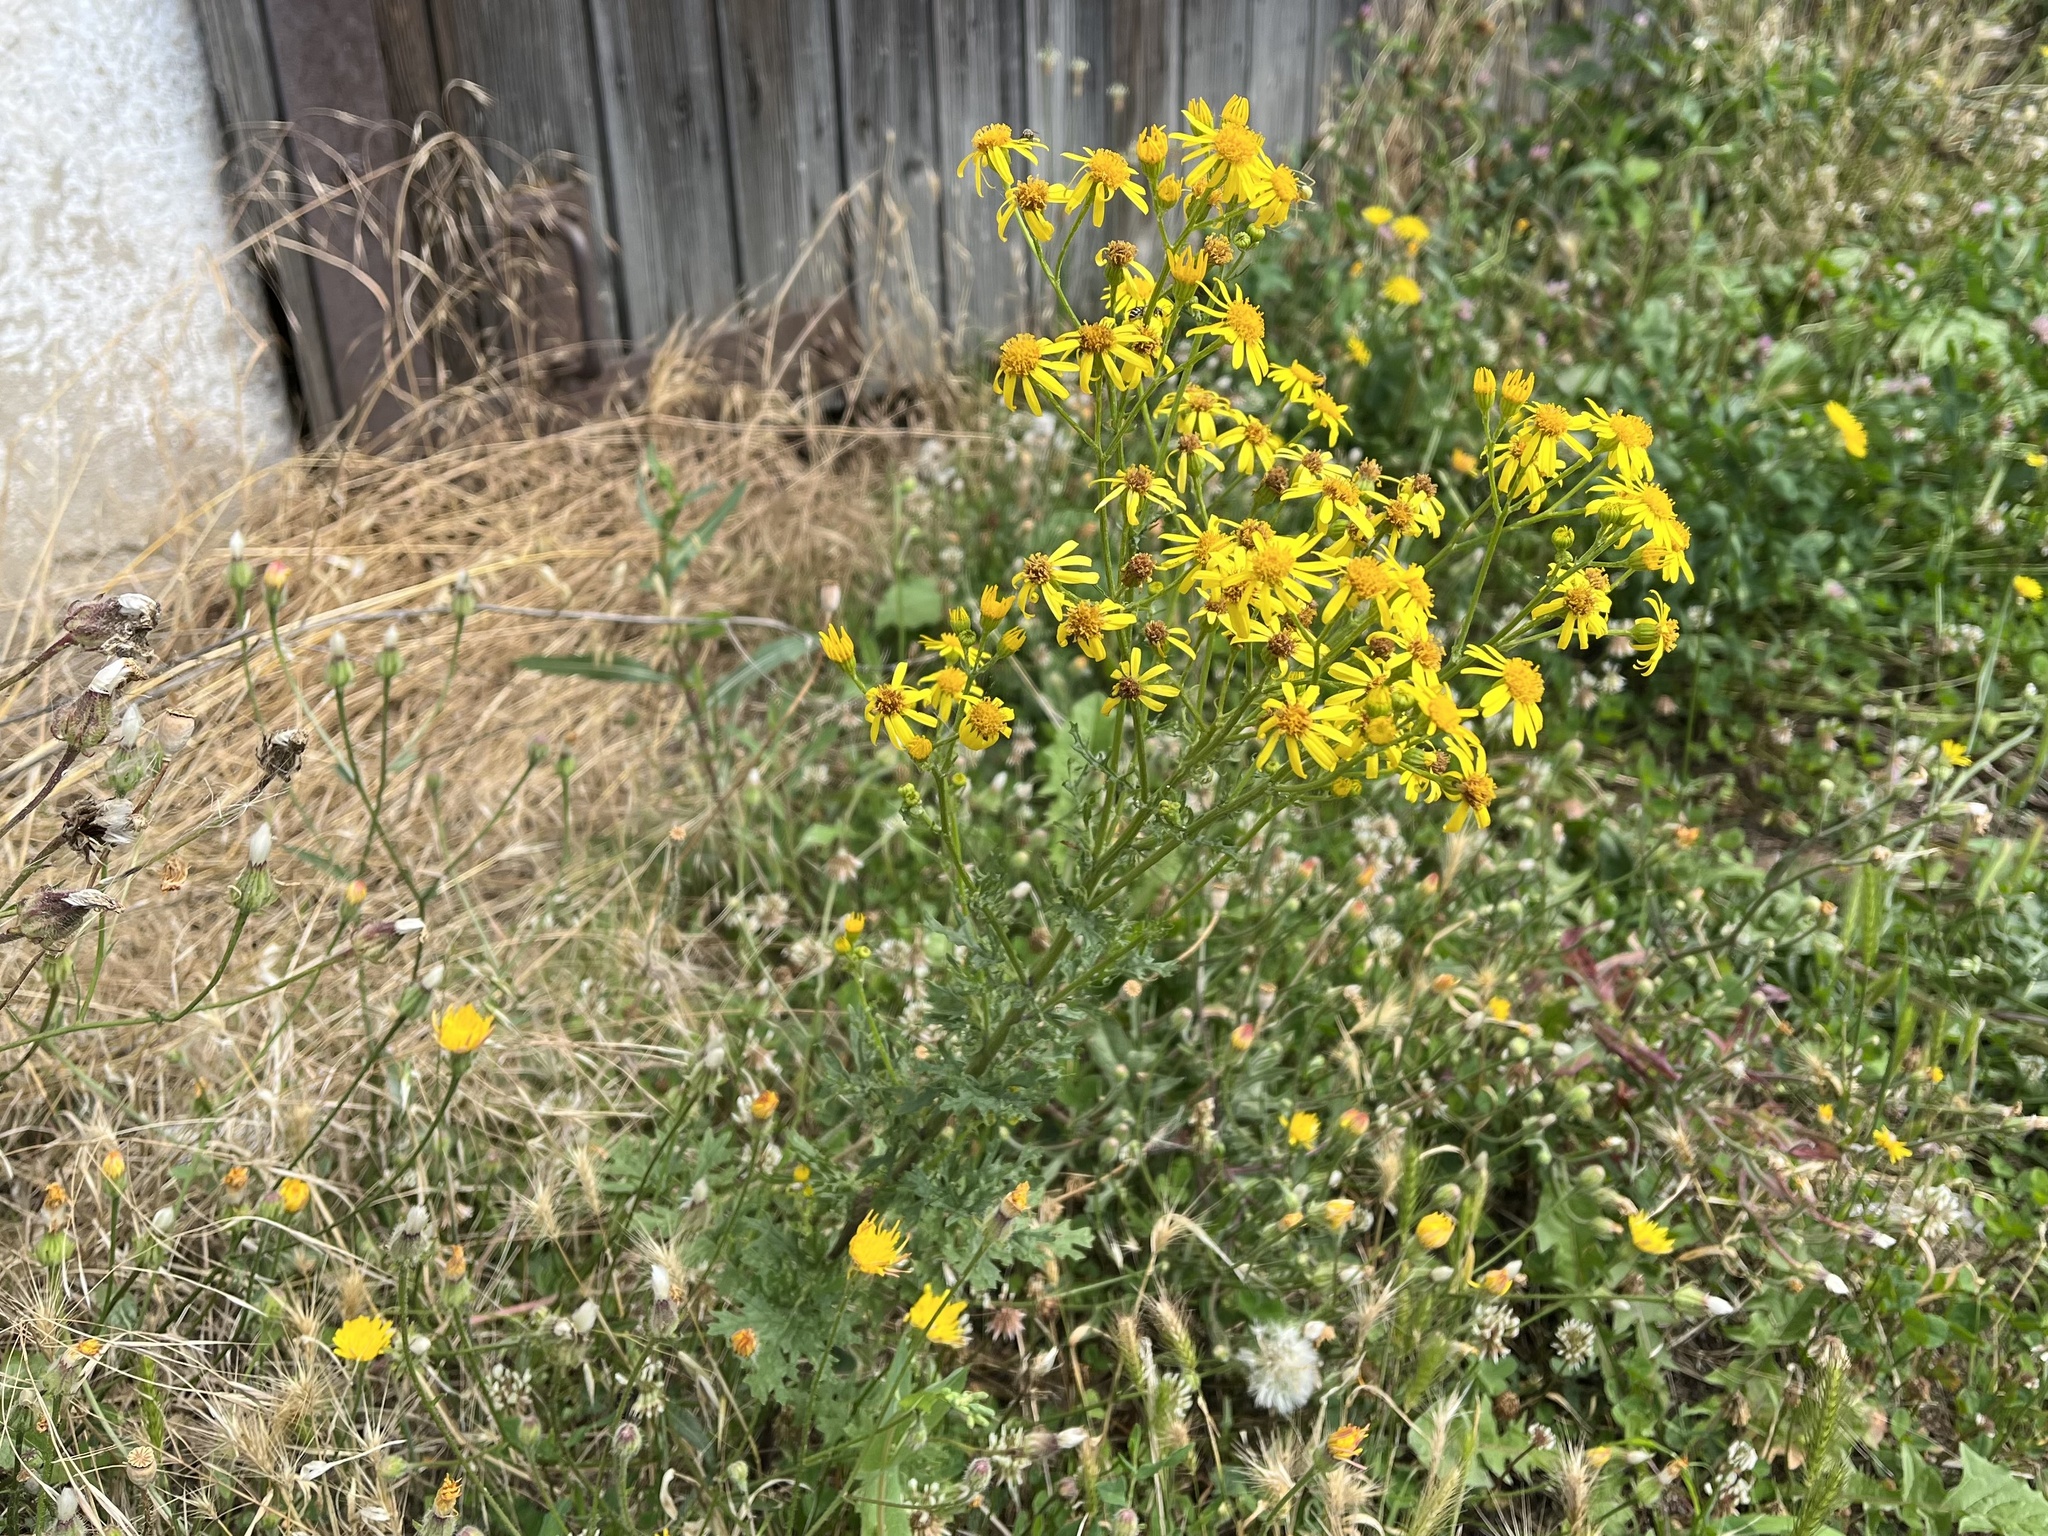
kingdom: Plantae
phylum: Tracheophyta
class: Magnoliopsida
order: Asterales
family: Asteraceae
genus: Jacobaea
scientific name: Jacobaea vulgaris
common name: Stinking willie
